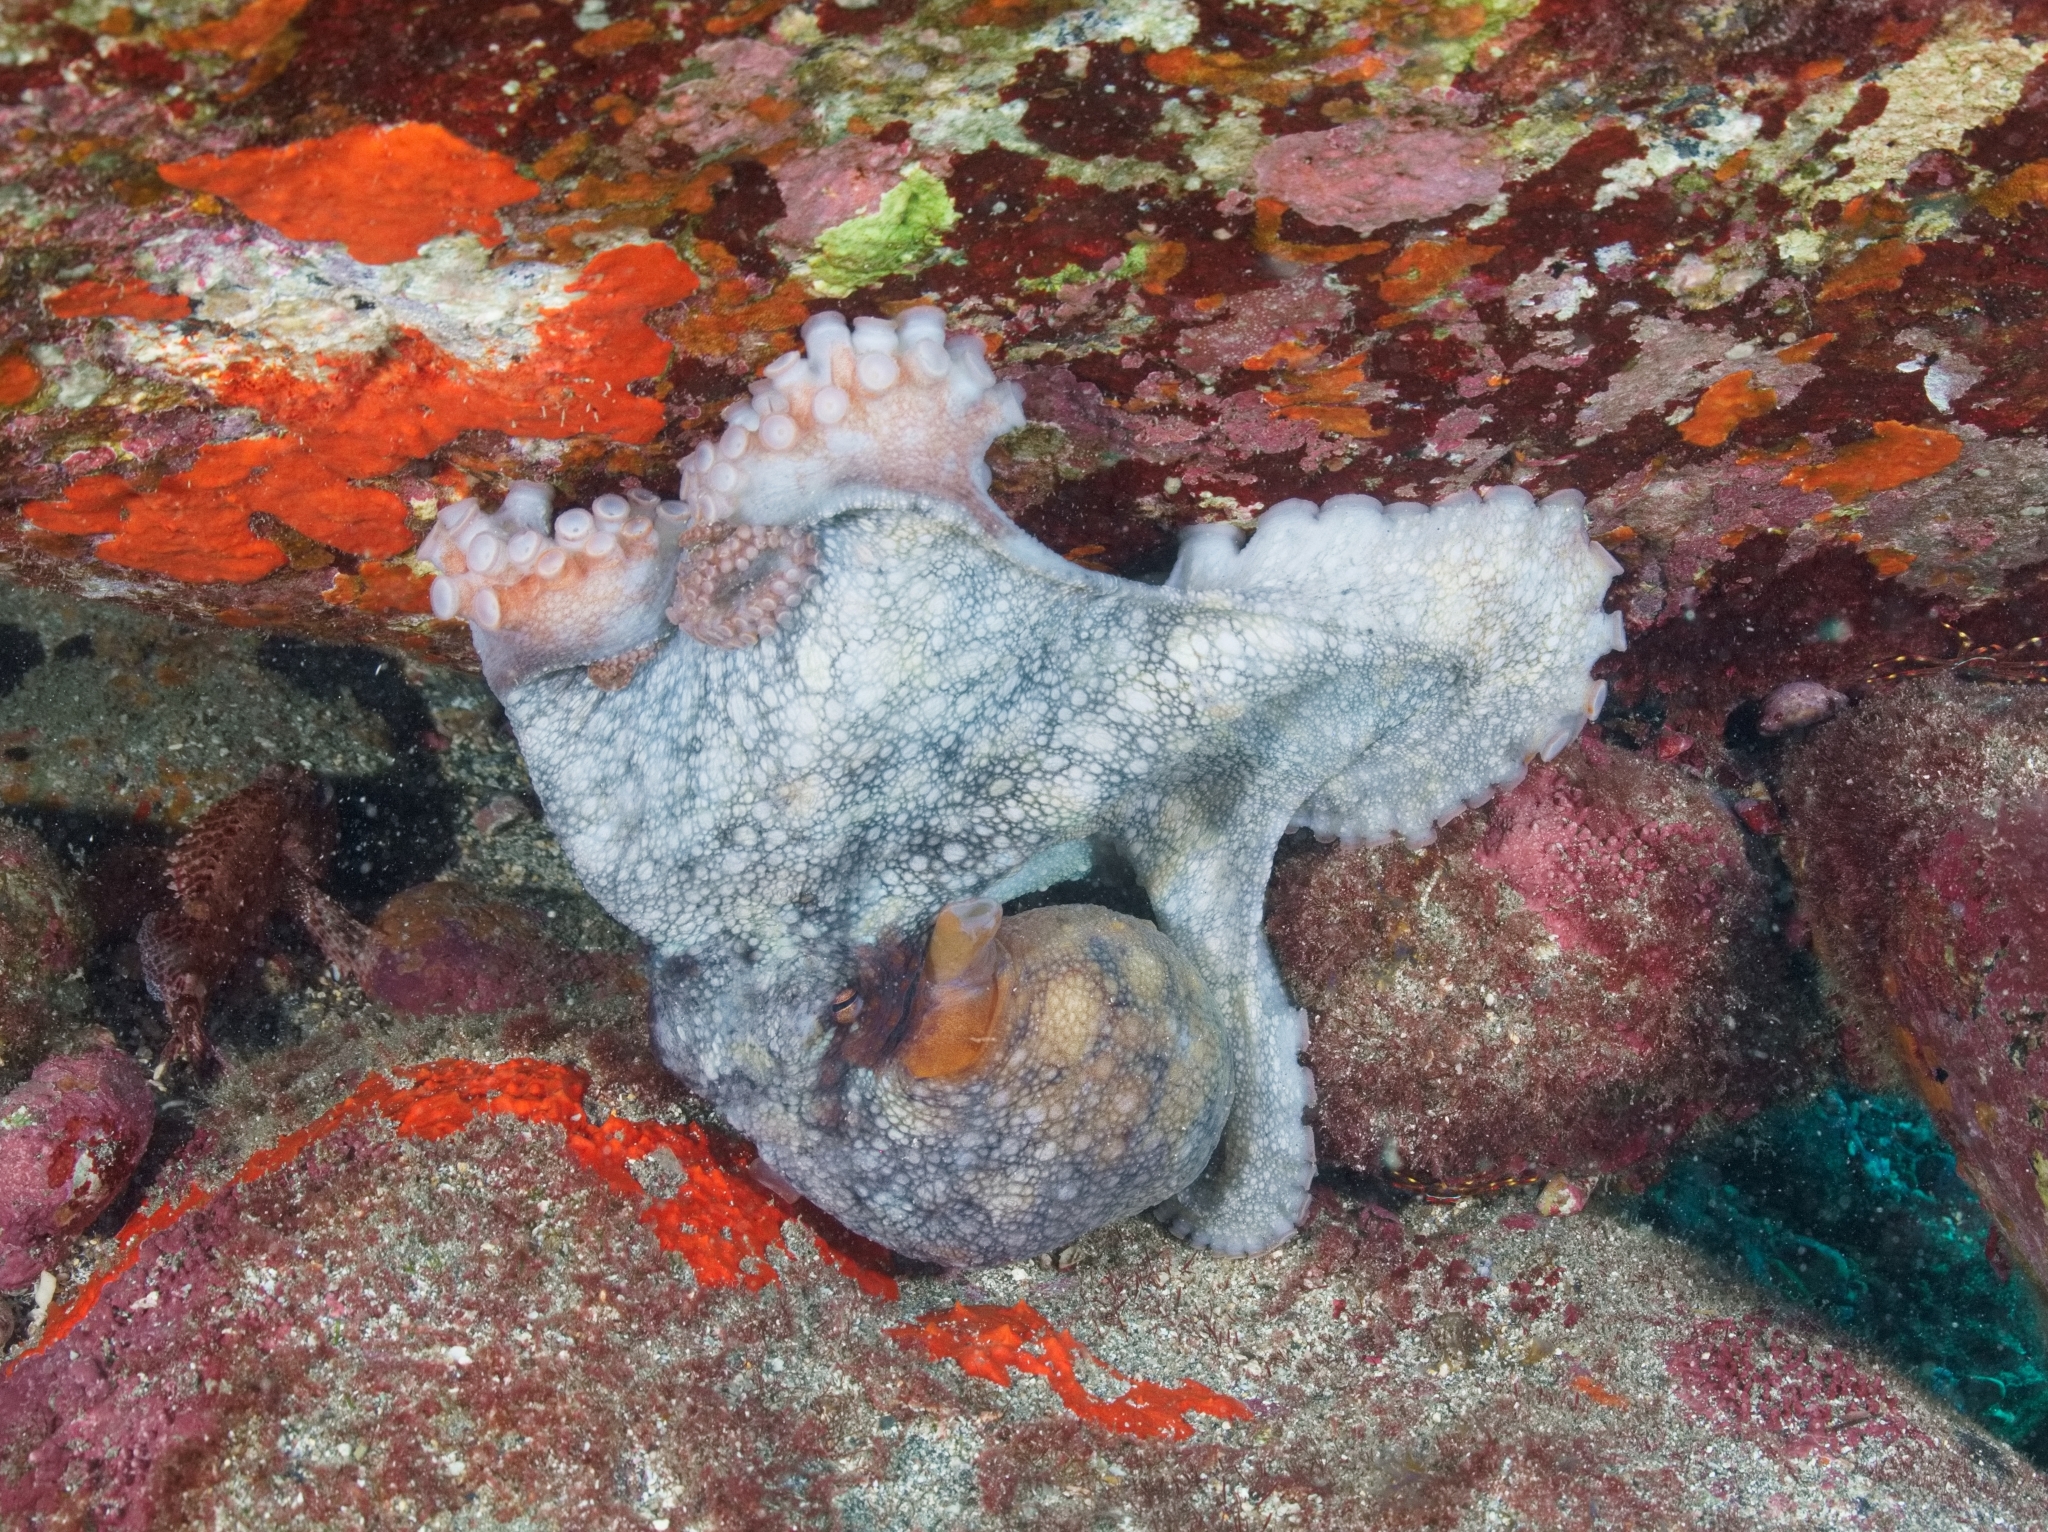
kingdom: Animalia
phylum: Mollusca
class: Cephalopoda
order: Octopoda
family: Octopodidae
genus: Octopus
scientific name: Octopus vulgaris
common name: Common octopus
